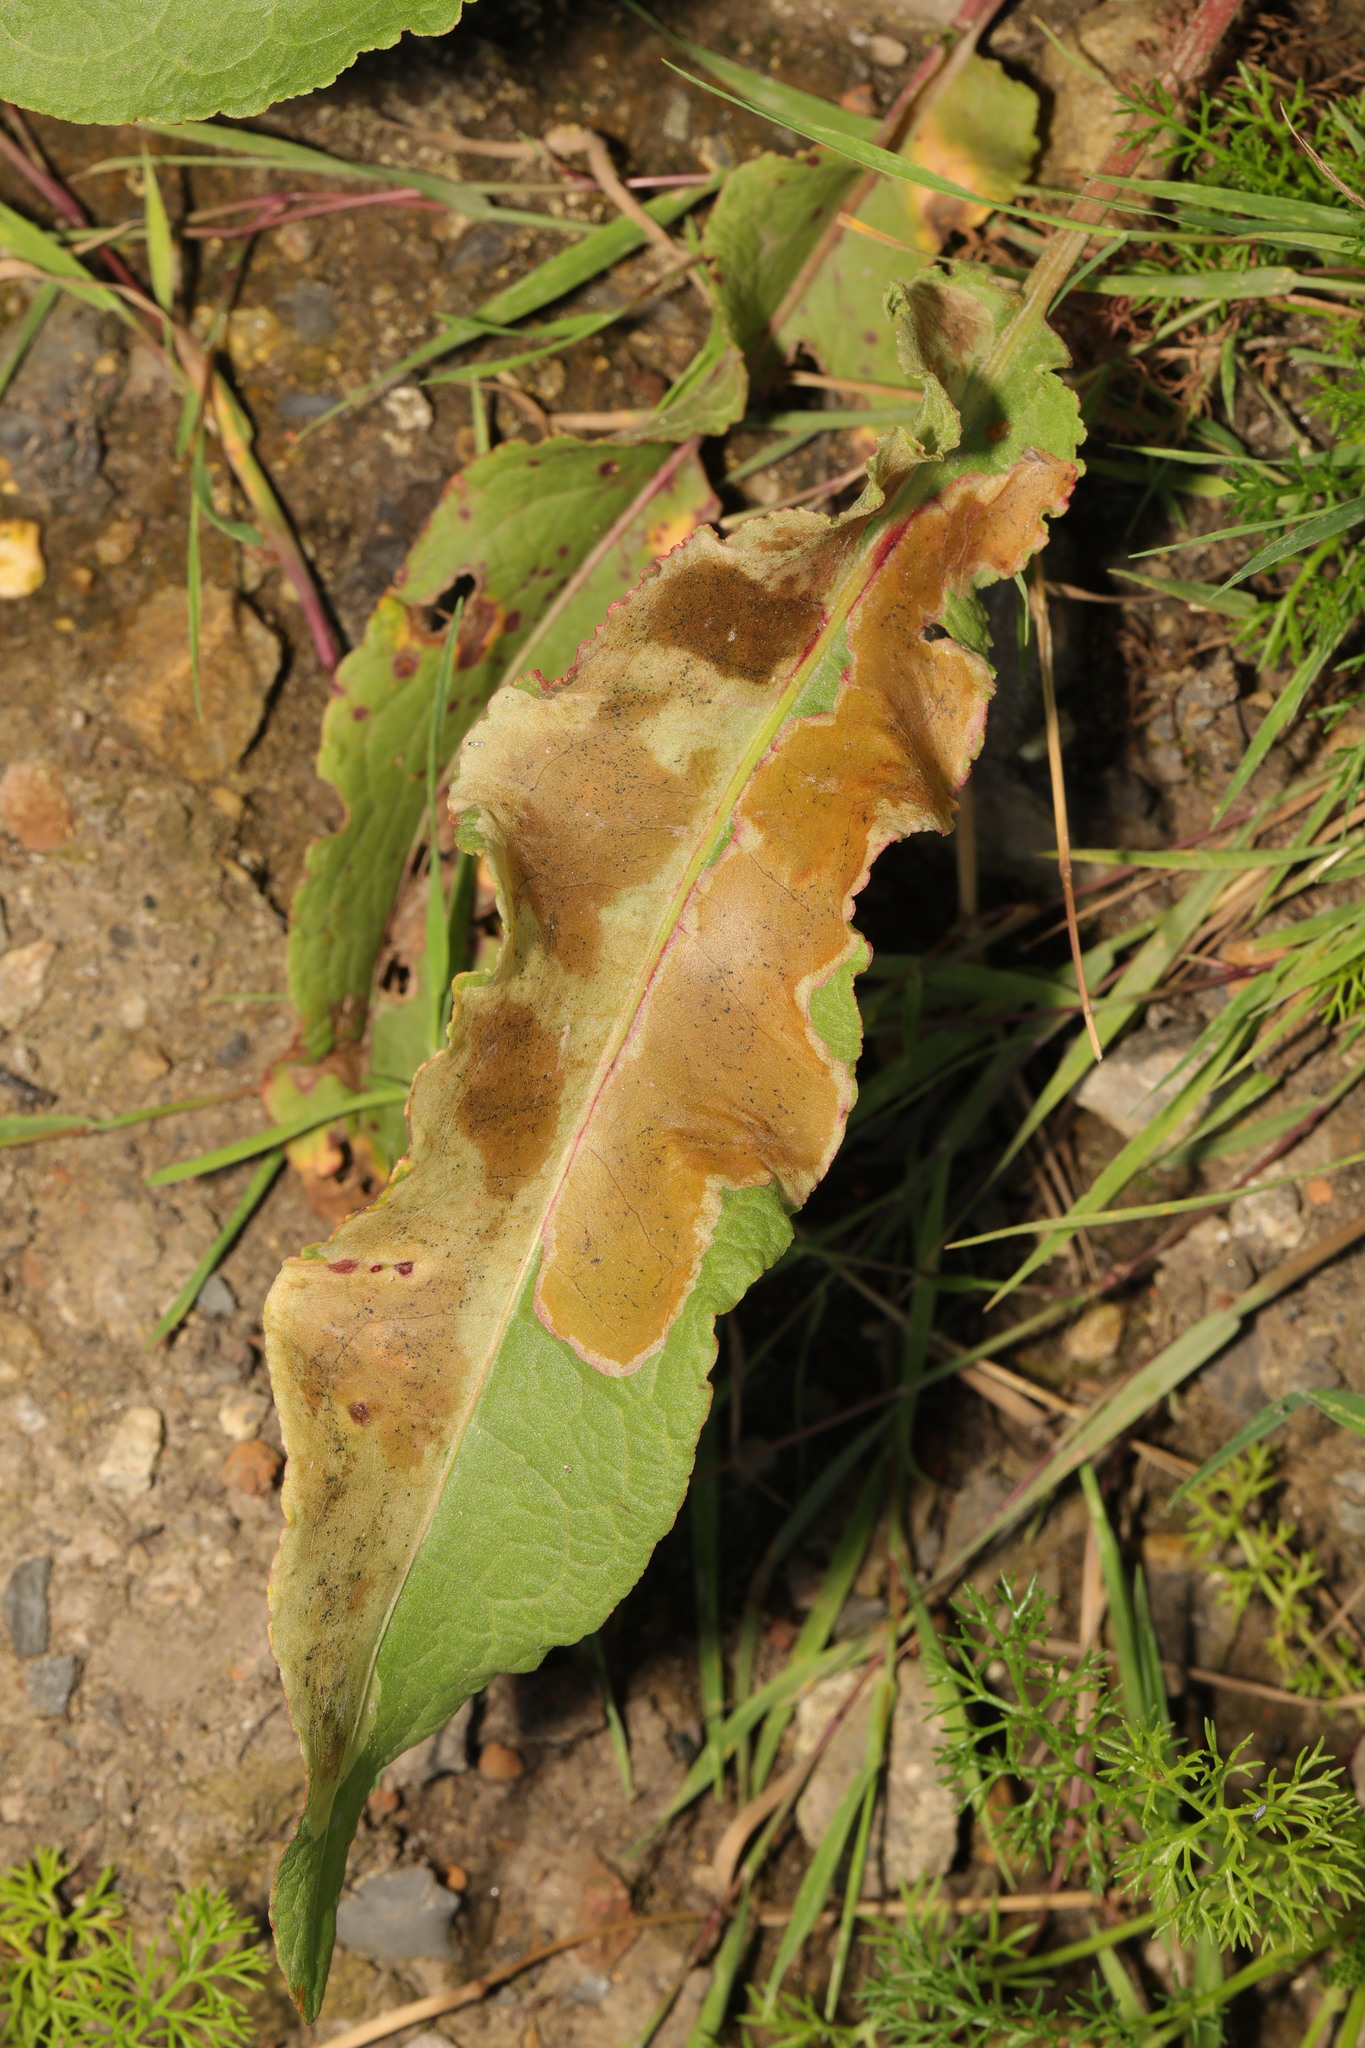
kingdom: Plantae
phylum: Tracheophyta
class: Magnoliopsida
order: Caryophyllales
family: Polygonaceae
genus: Rumex
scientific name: Rumex crispus
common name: Curled dock
